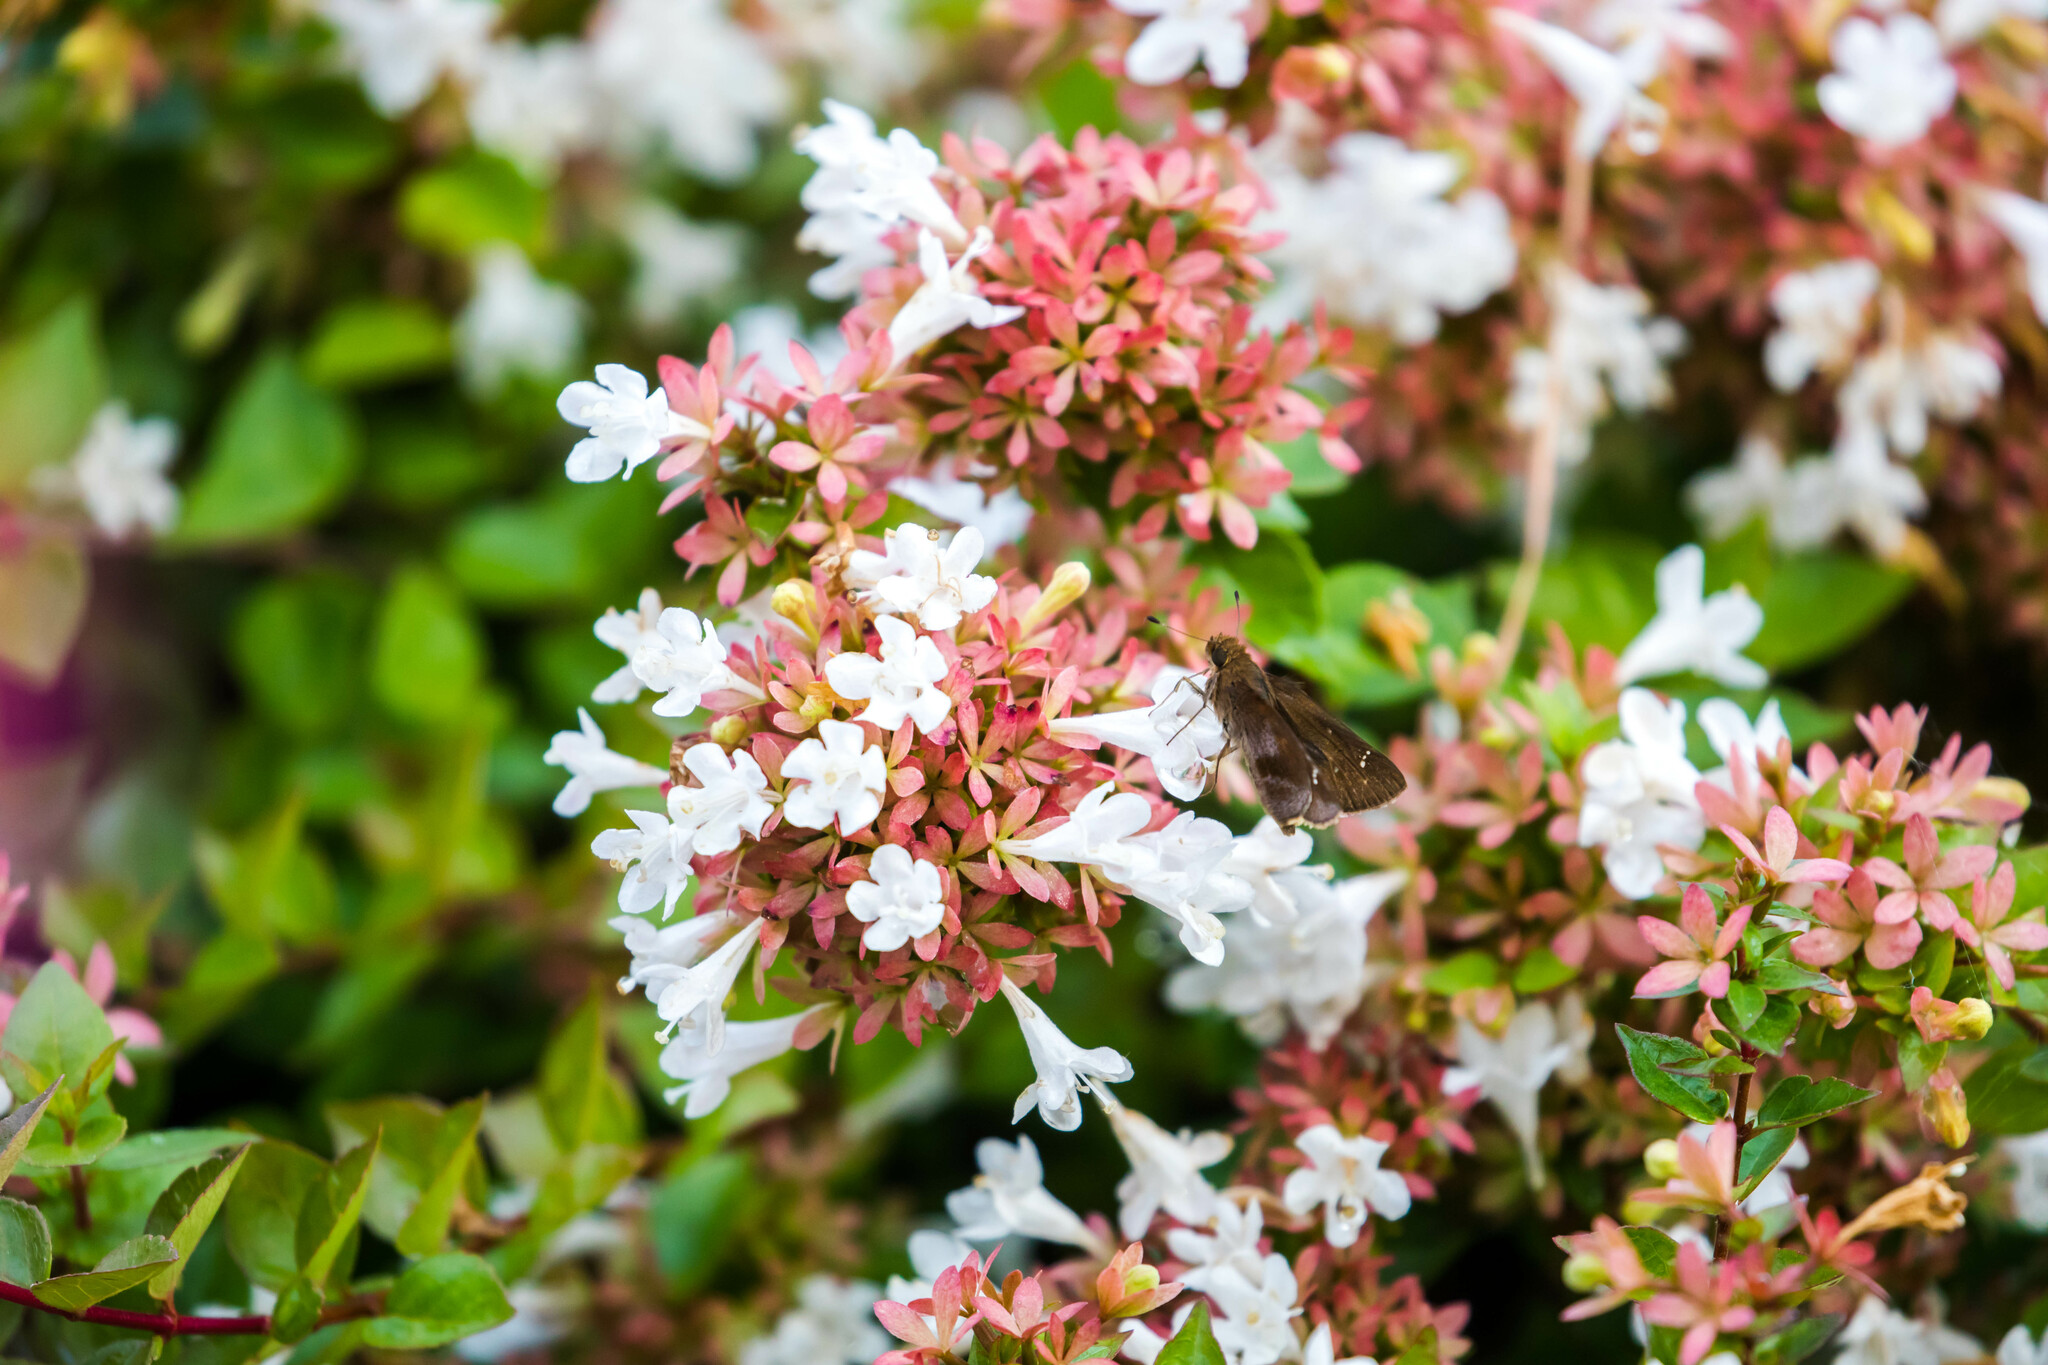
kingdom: Animalia
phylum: Arthropoda
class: Insecta
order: Lepidoptera
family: Hesperiidae
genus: Lerema
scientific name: Lerema accius
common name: Clouded skipper
